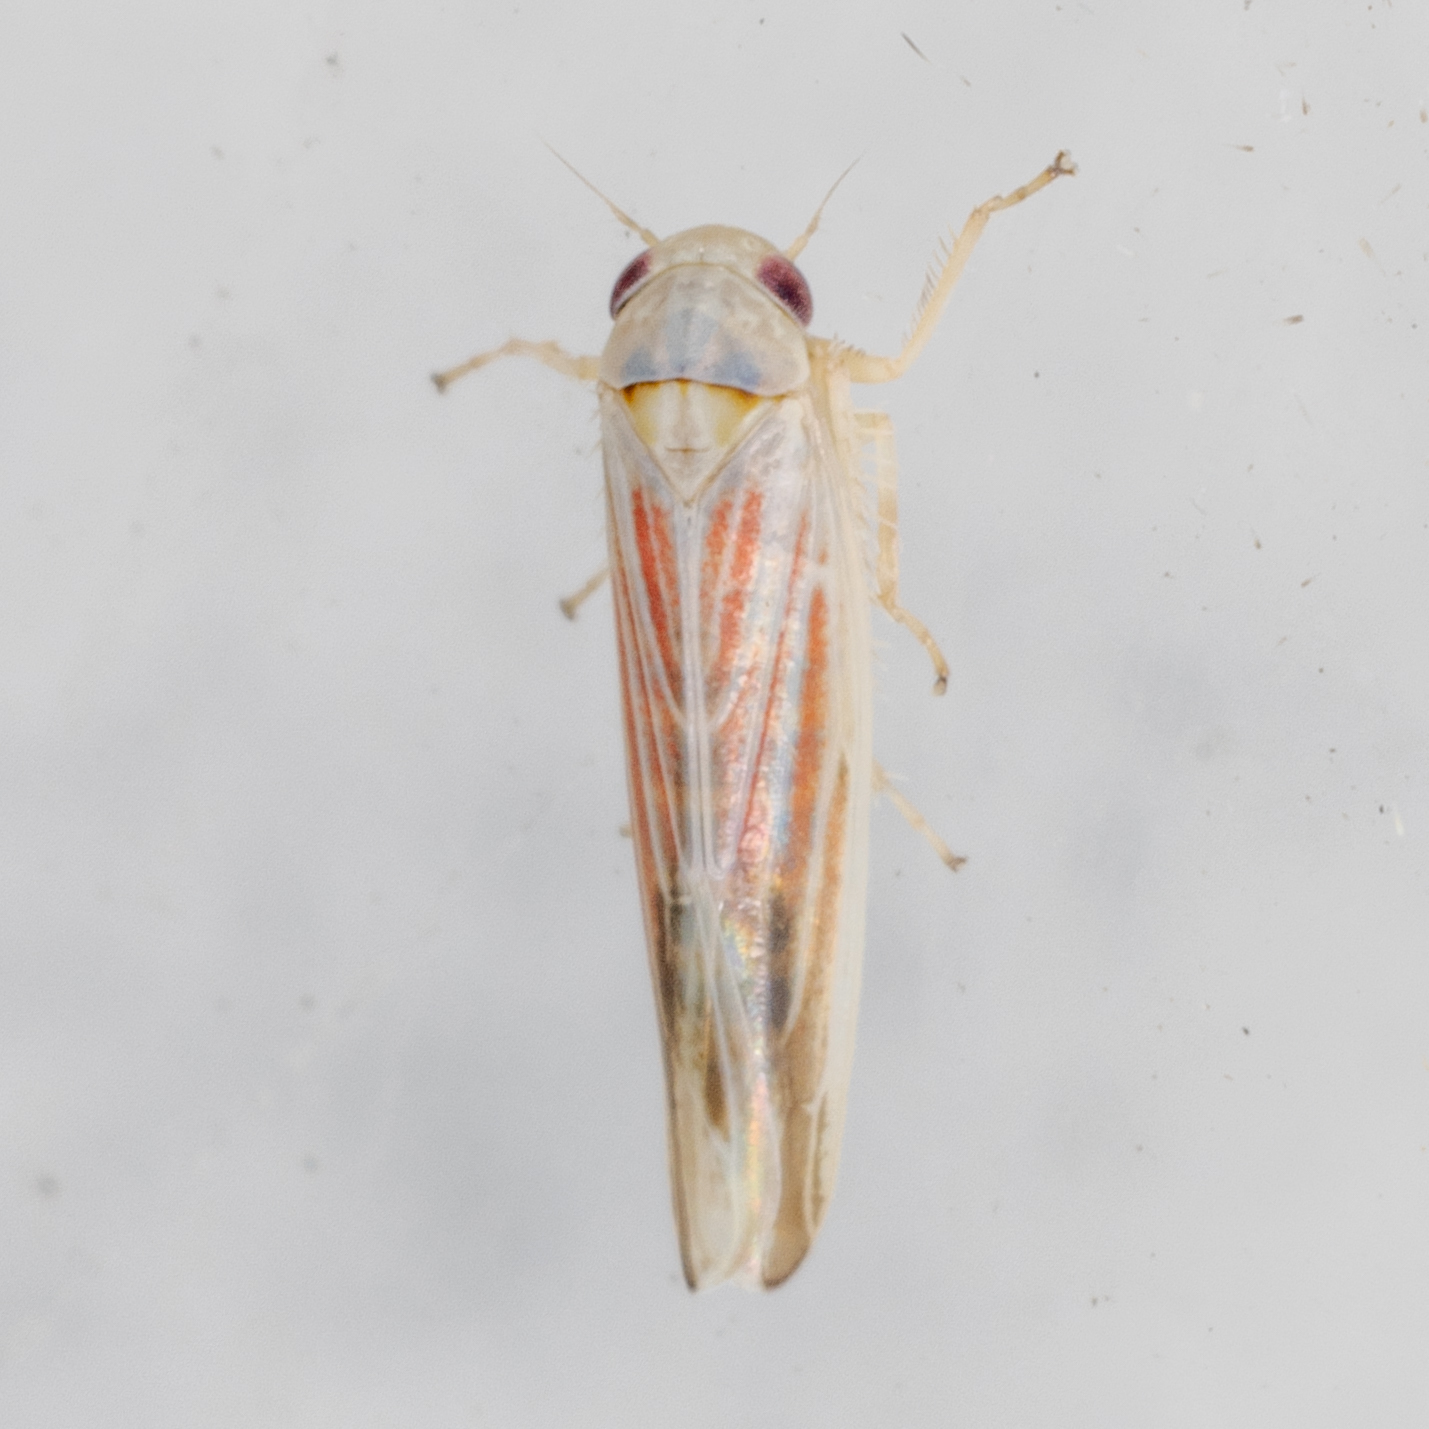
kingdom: Animalia
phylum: Arthropoda
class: Insecta
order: Hemiptera
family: Cicadellidae
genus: Balclutha
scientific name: Balclutha rubrostriata
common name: Red-streaked leafhopper
